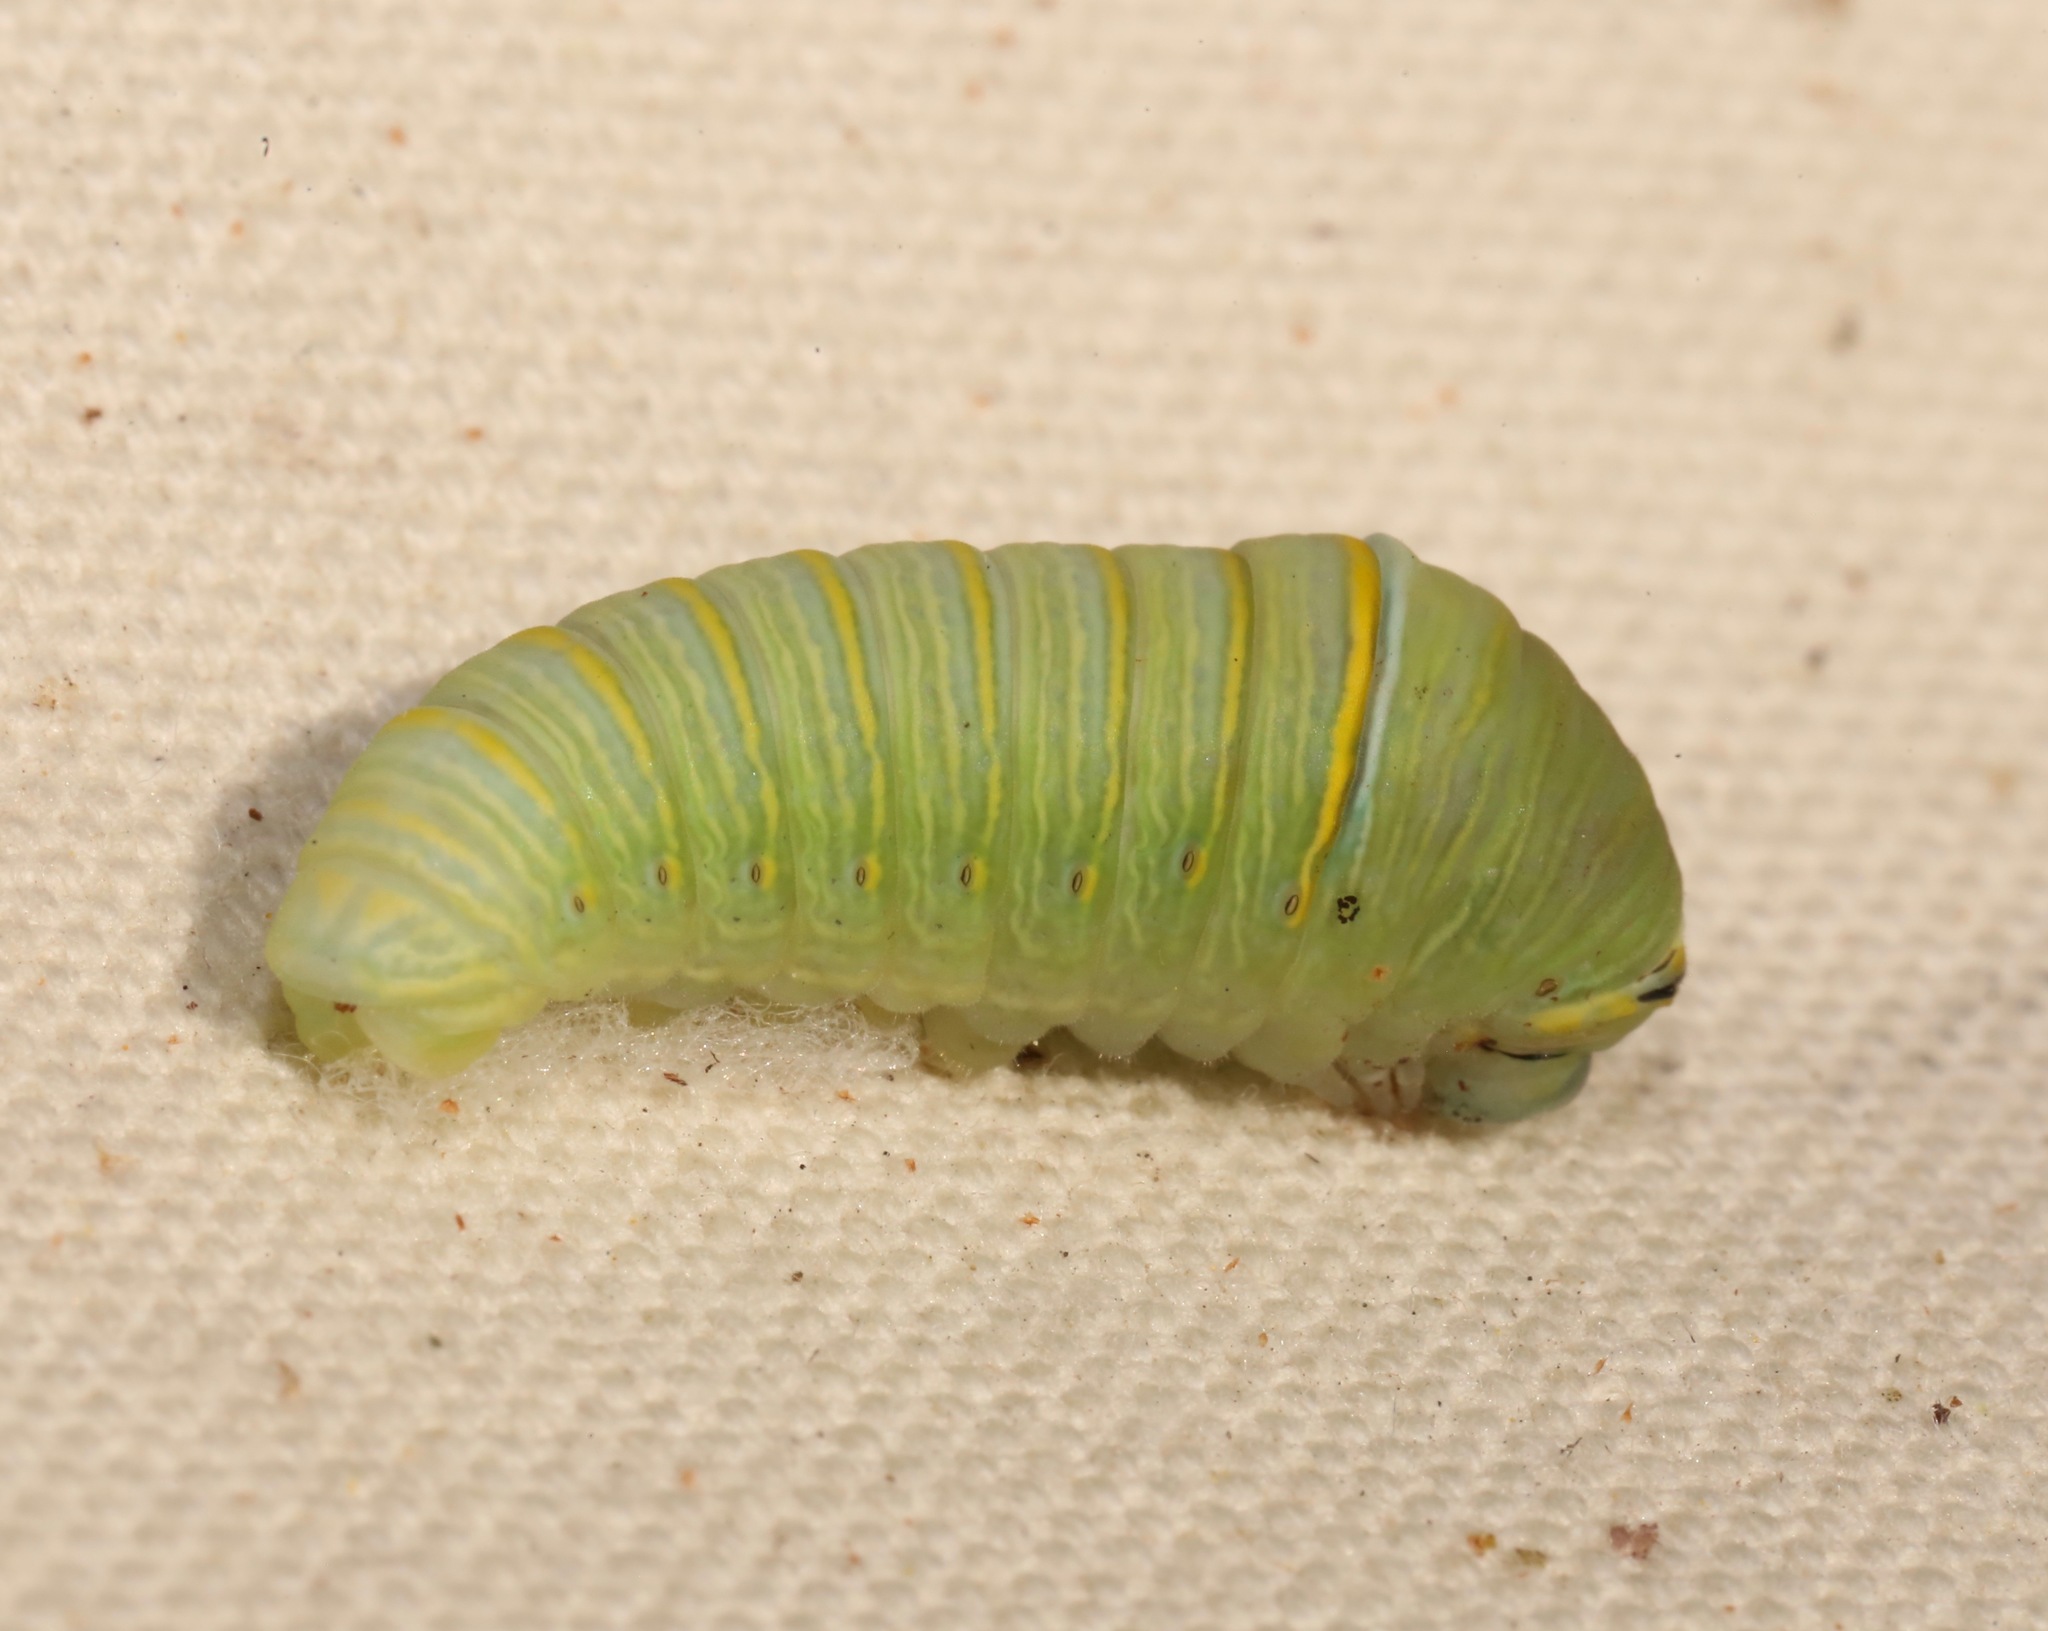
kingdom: Animalia
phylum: Arthropoda
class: Insecta
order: Lepidoptera
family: Papilionidae
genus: Protographium
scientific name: Protographium marcellus
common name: Zebra swallowtail
